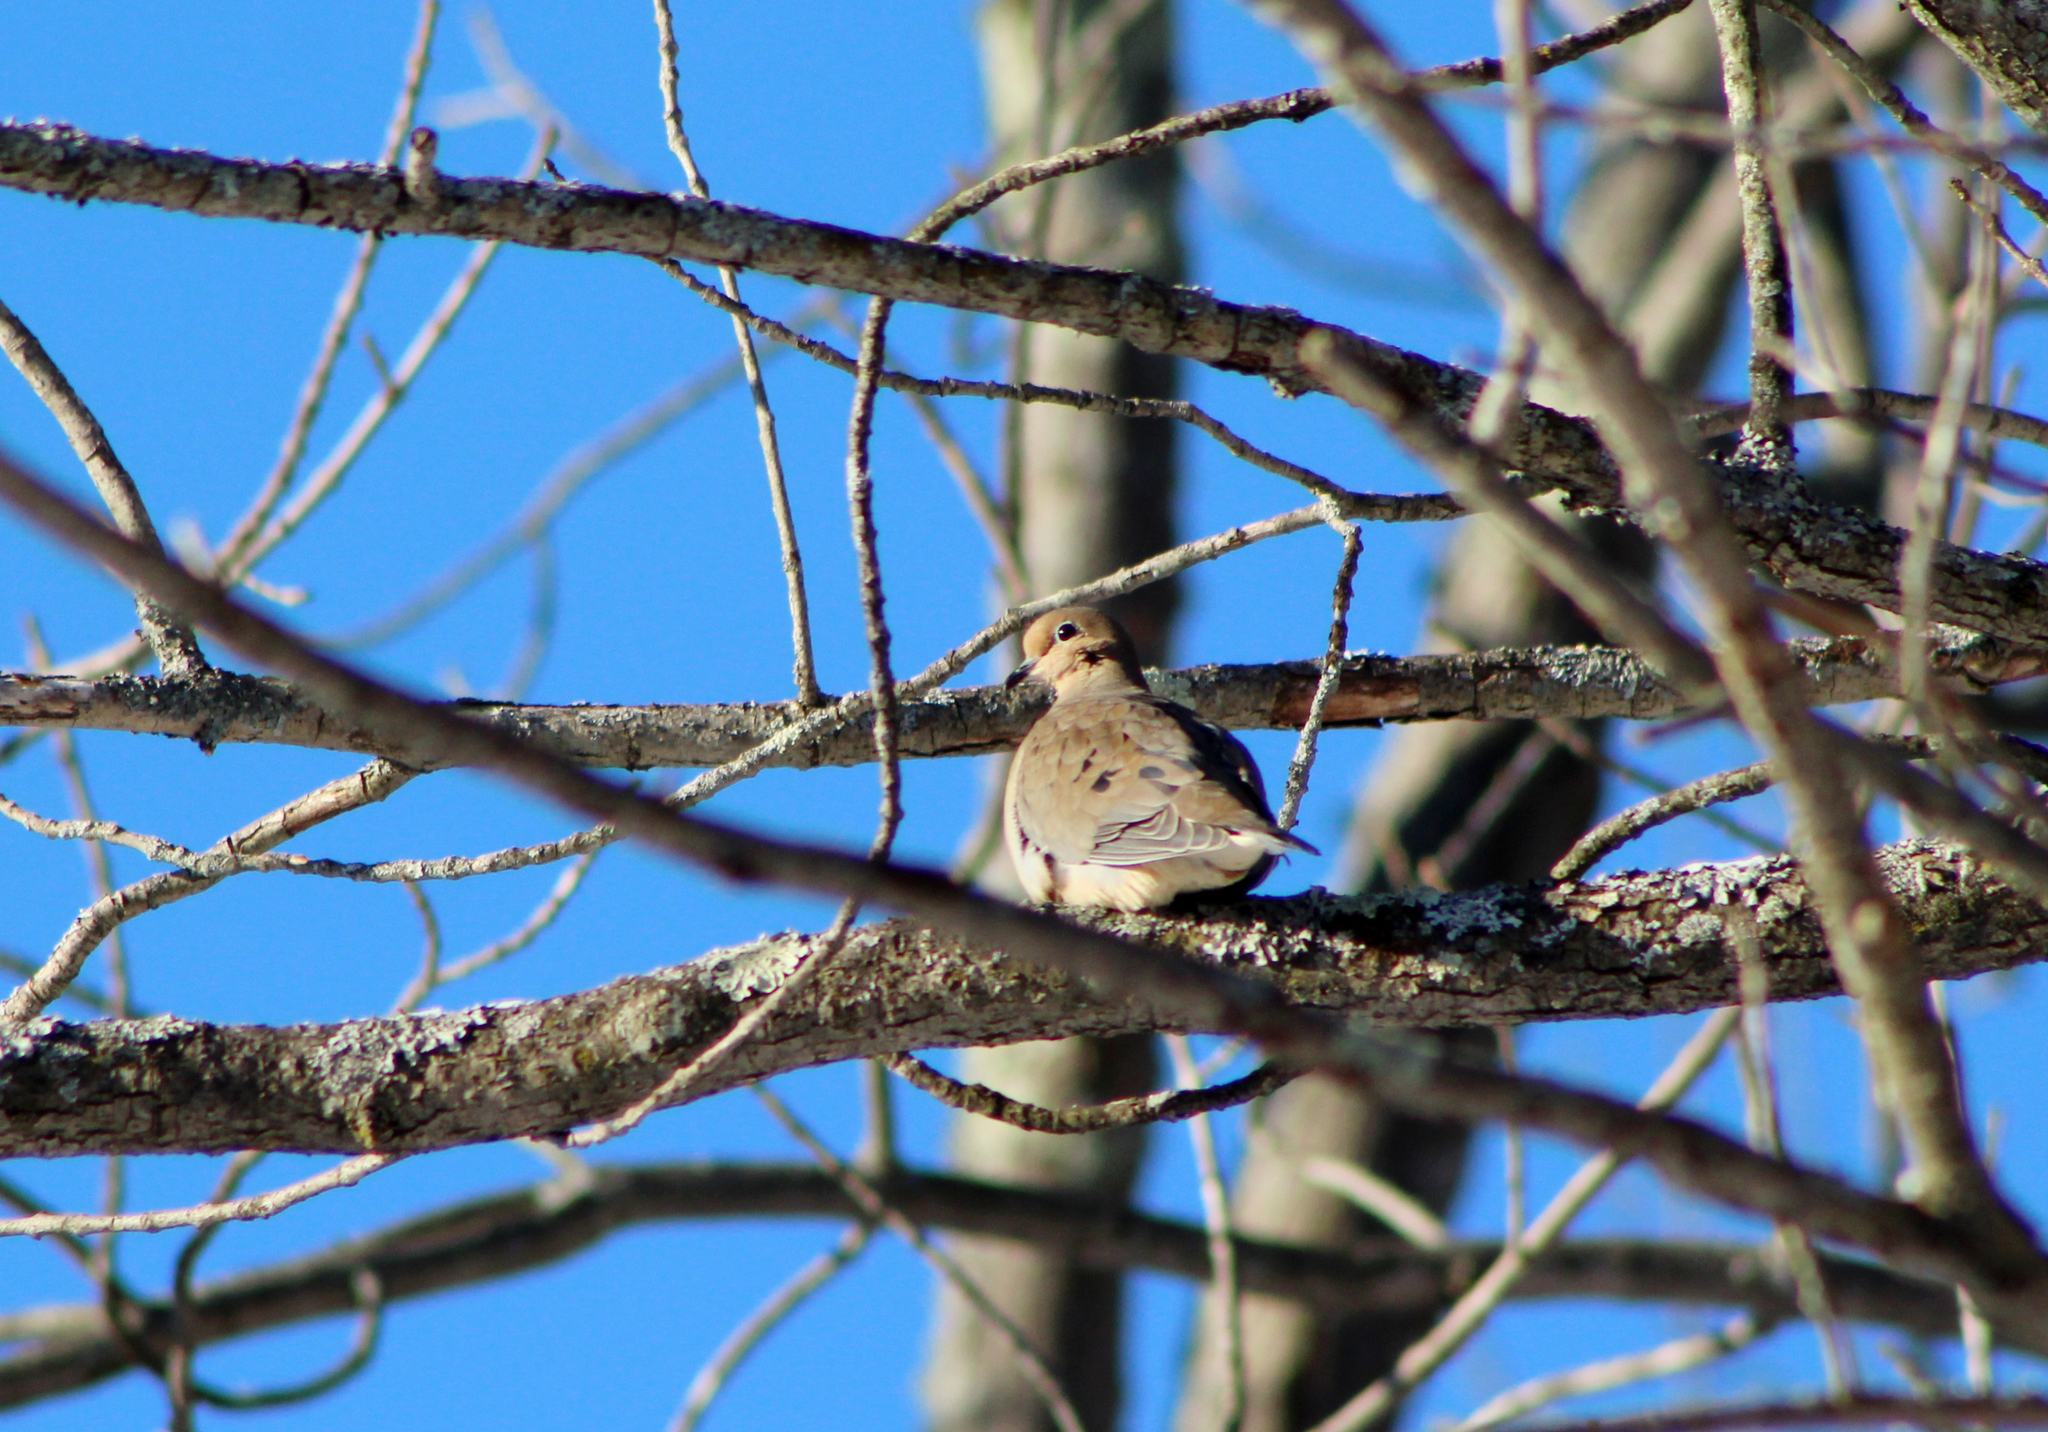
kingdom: Animalia
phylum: Chordata
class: Aves
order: Columbiformes
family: Columbidae
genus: Zenaida
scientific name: Zenaida macroura
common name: Mourning dove
